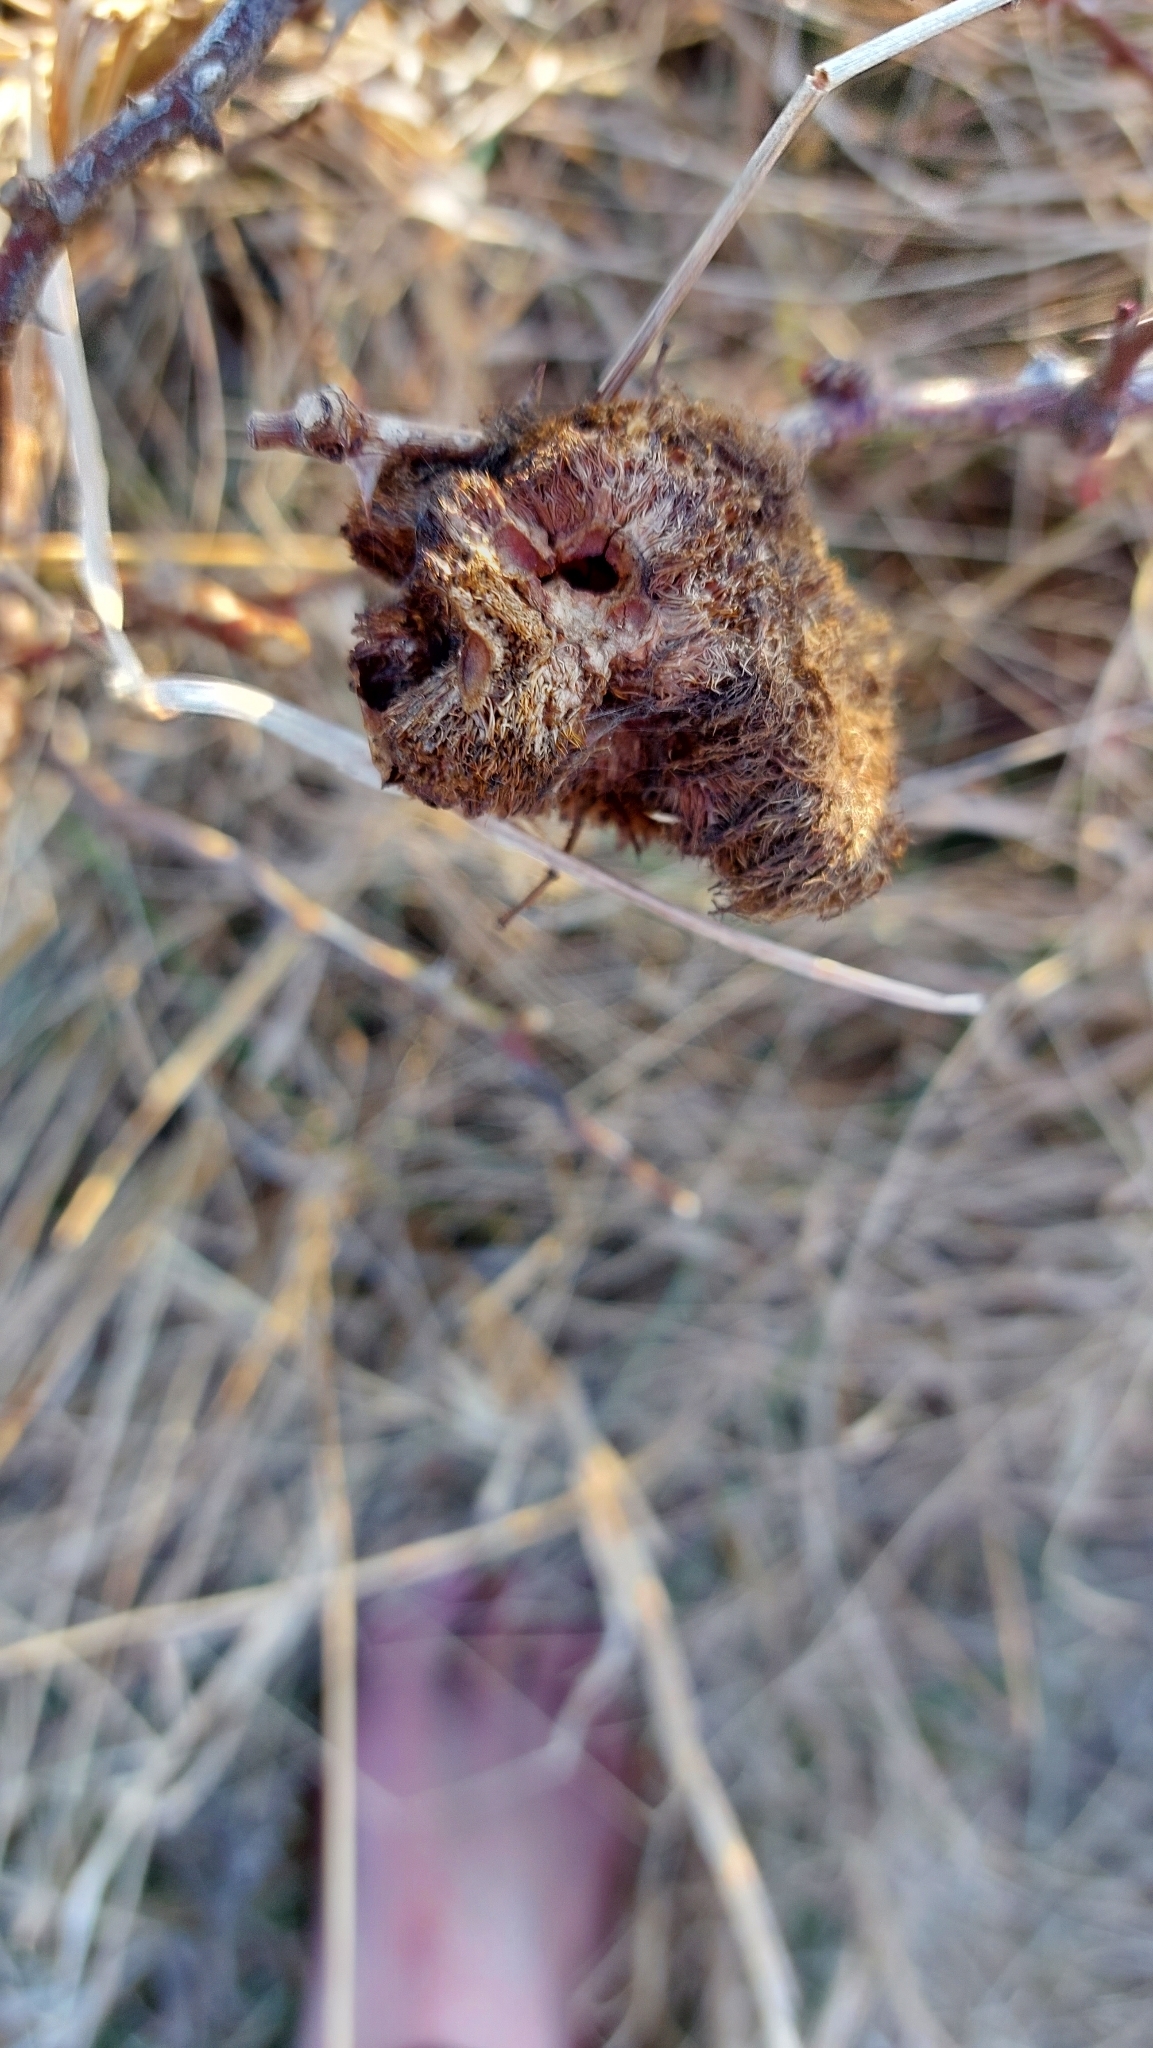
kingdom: Animalia
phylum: Arthropoda
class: Insecta
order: Hymenoptera
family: Cynipidae
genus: Diplolepis
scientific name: Diplolepis rosae
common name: Bedeguar gall
